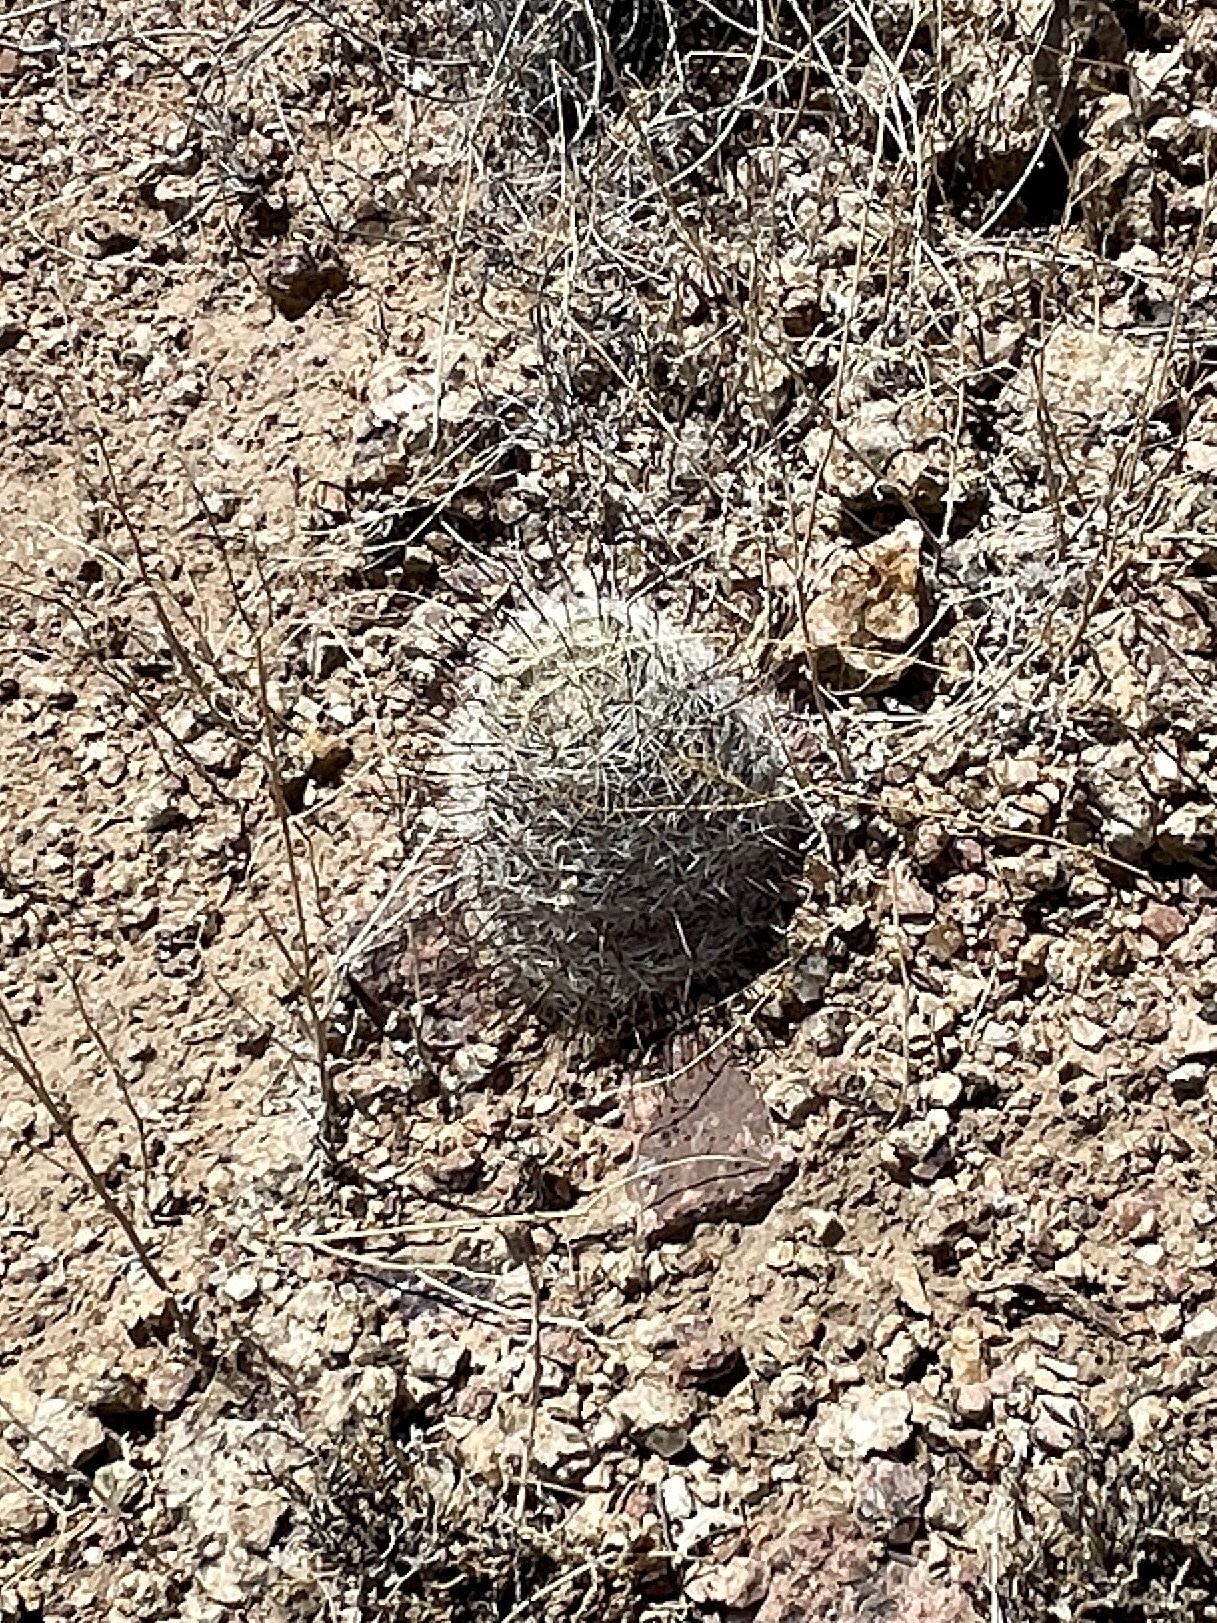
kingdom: Plantae
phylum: Tracheophyta
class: Magnoliopsida
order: Caryophyllales
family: Cactaceae
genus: Cochemiea
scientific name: Cochemiea grahamii
